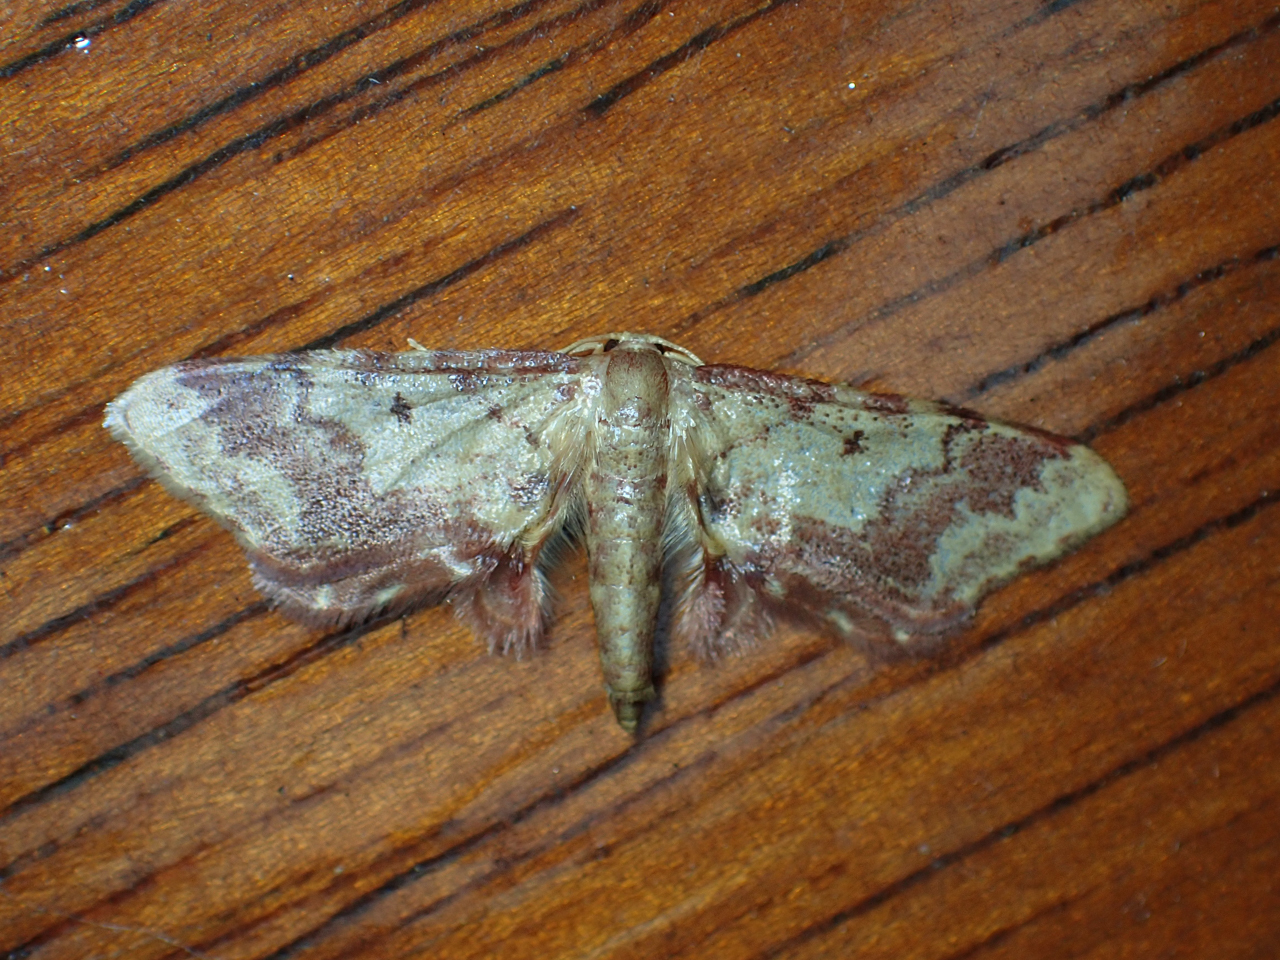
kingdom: Animalia
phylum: Arthropoda
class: Insecta
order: Lepidoptera
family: Geometridae
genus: Idaea
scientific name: Idaea furciferata
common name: Notch-winged wave
